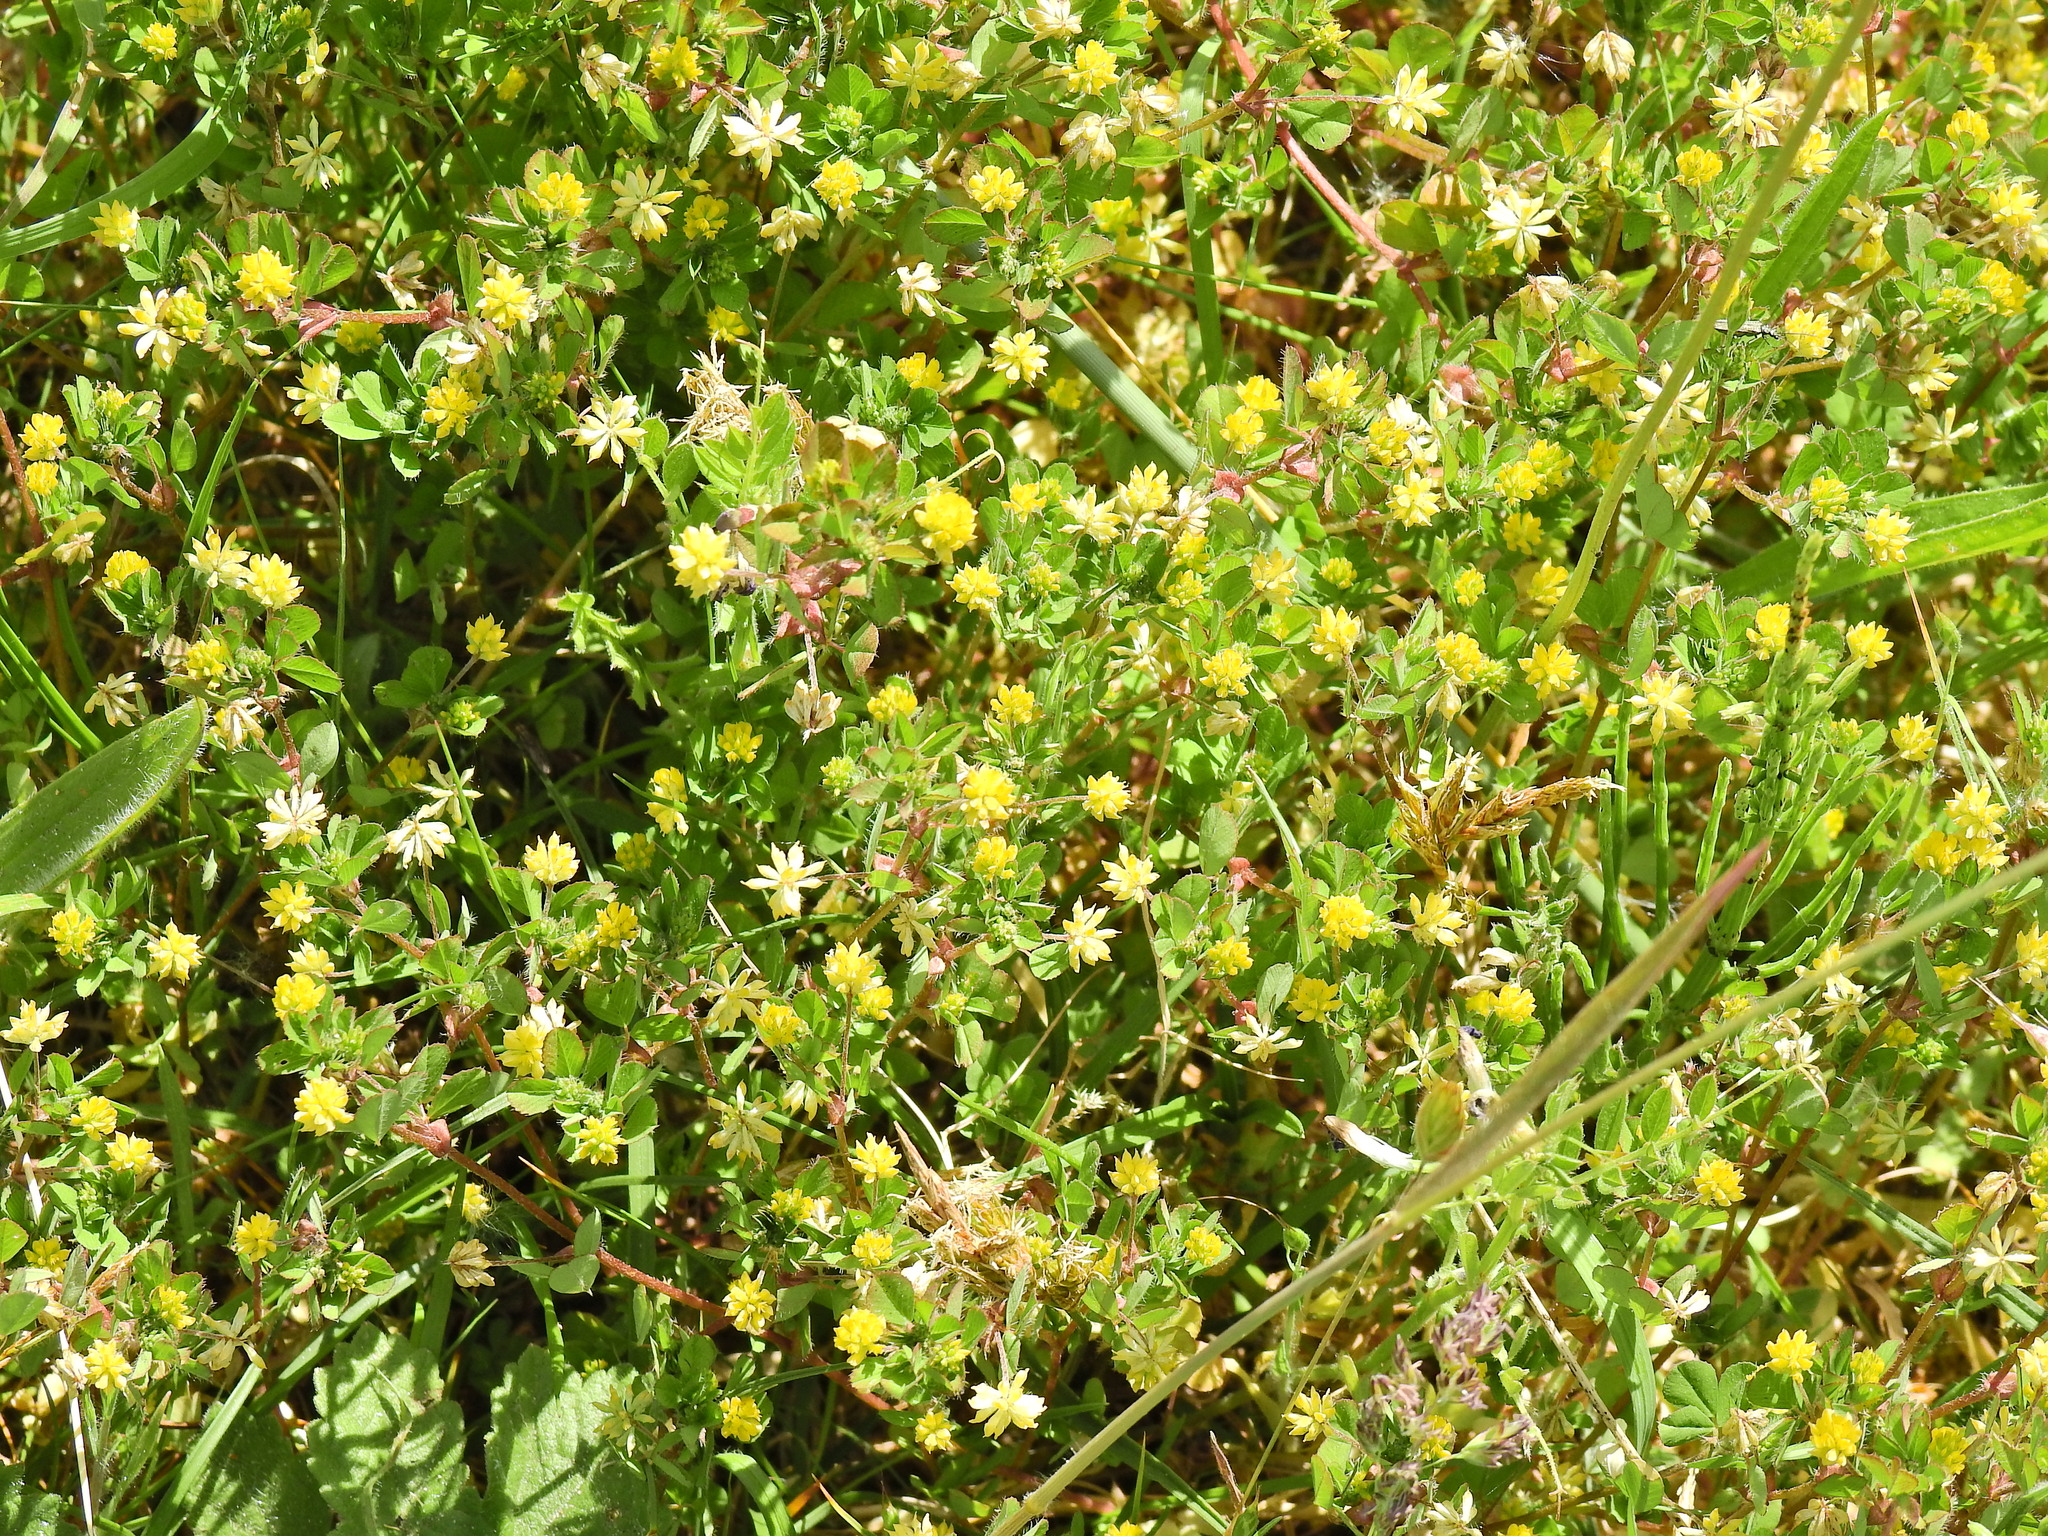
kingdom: Plantae
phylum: Tracheophyta
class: Magnoliopsida
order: Fabales
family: Fabaceae
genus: Trifolium
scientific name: Trifolium dubium
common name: Suckling clover
